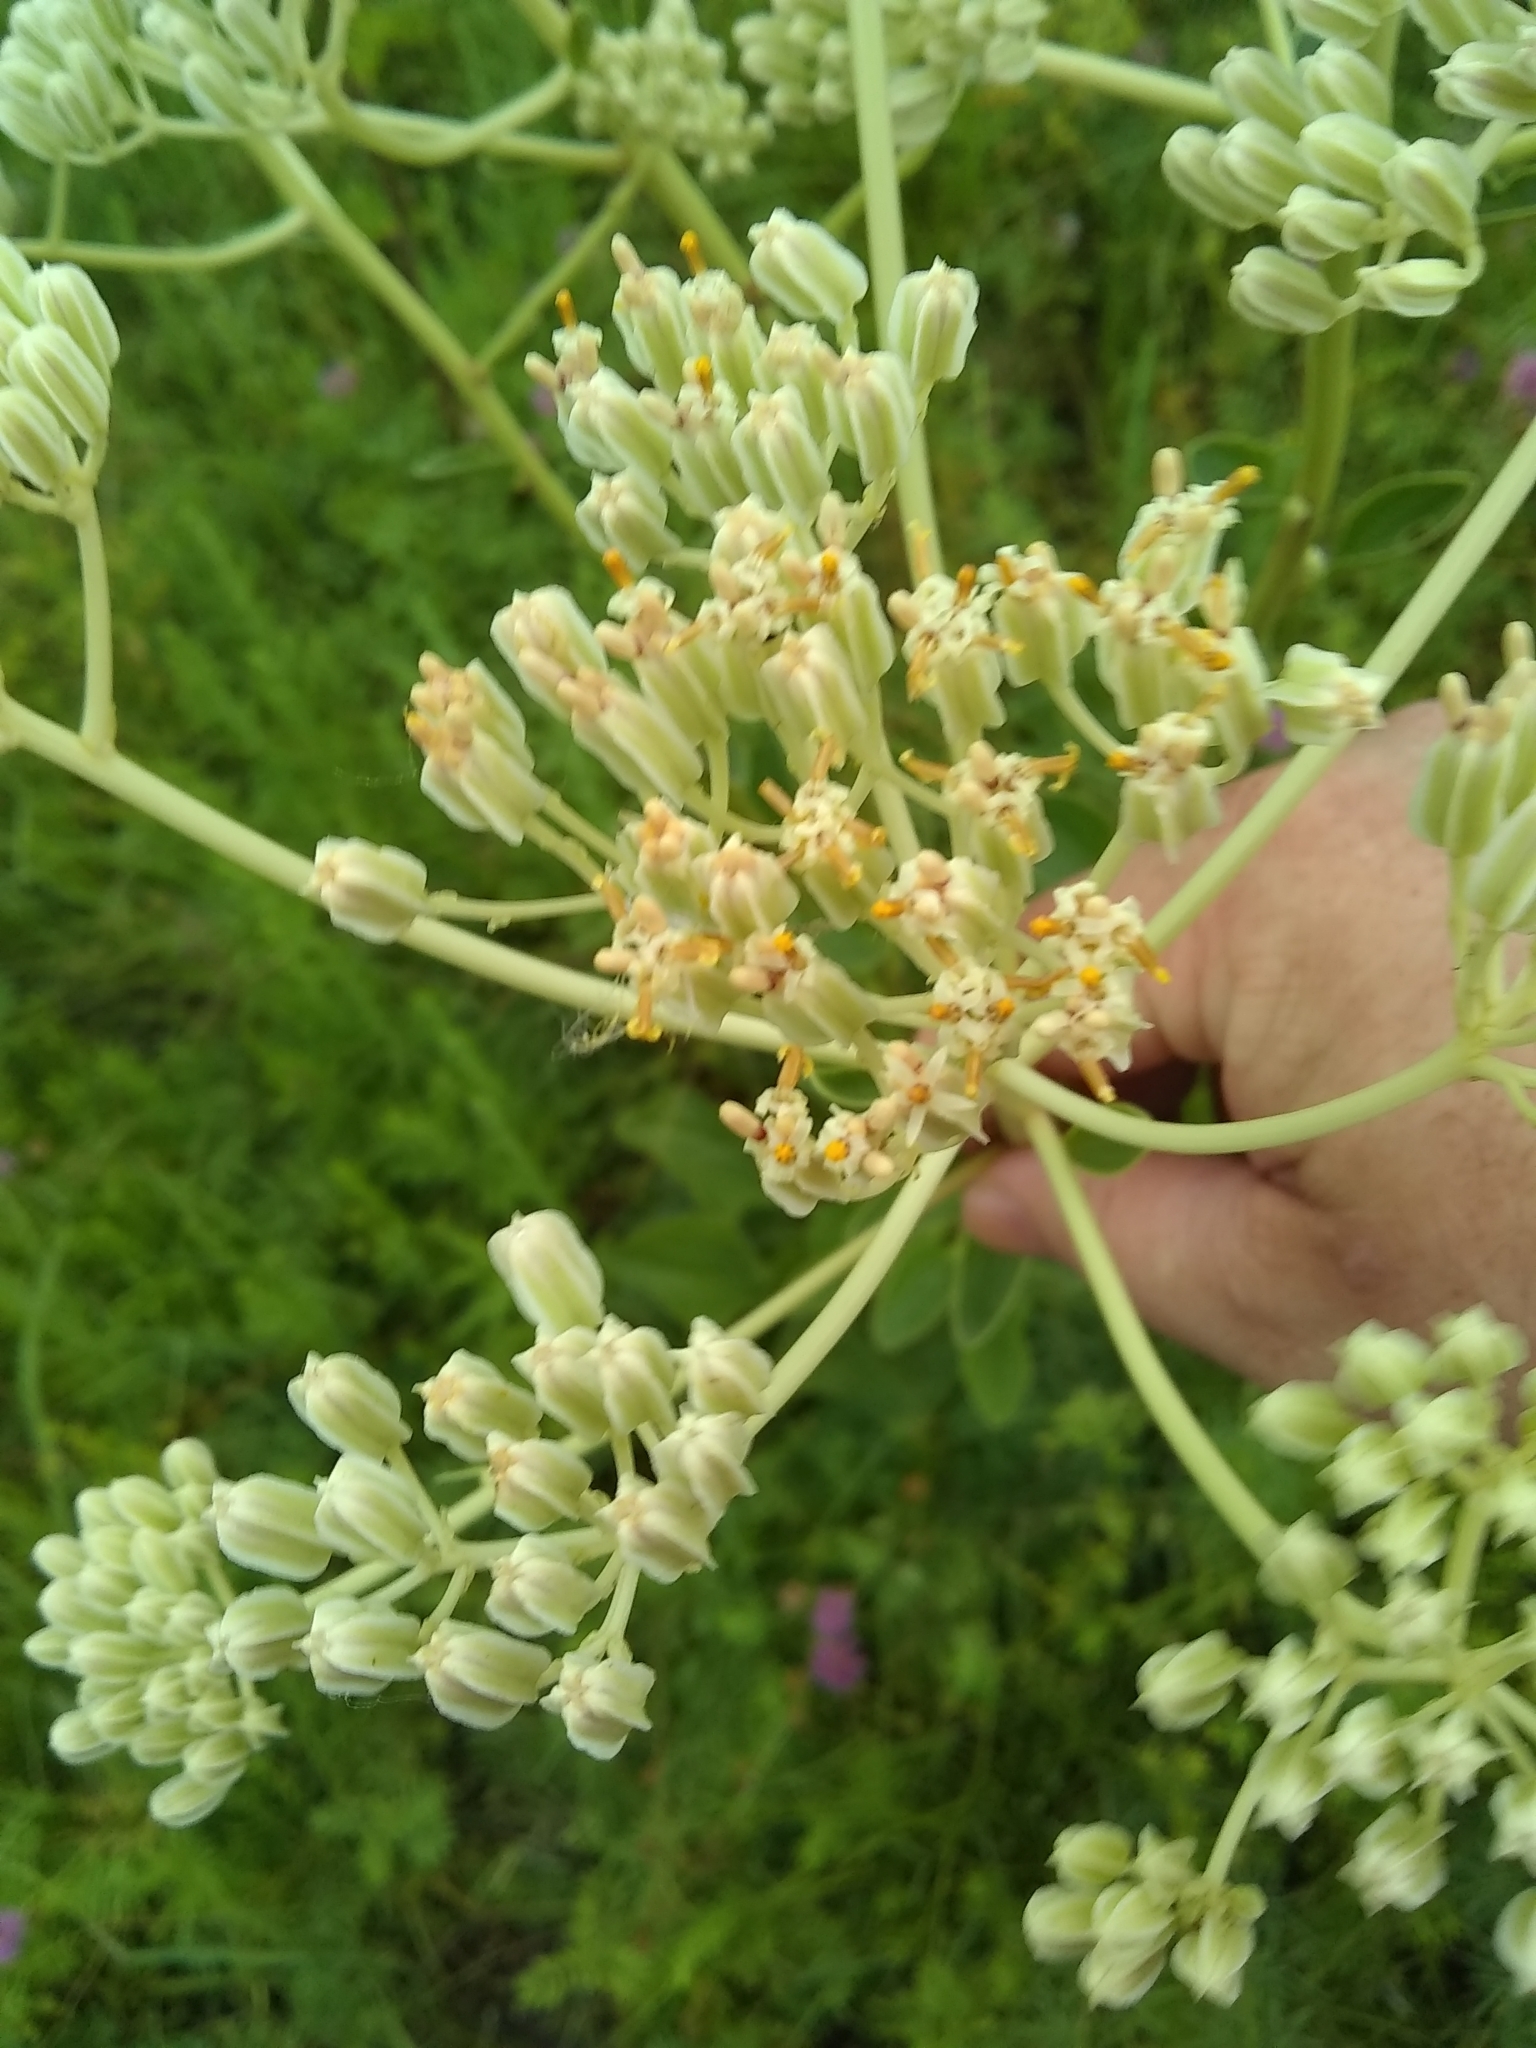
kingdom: Plantae
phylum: Tracheophyta
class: Magnoliopsida
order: Asterales
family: Asteraceae
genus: Arnoglossum
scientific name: Arnoglossum plantagineum
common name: Groove-stemmed indian-plantain
